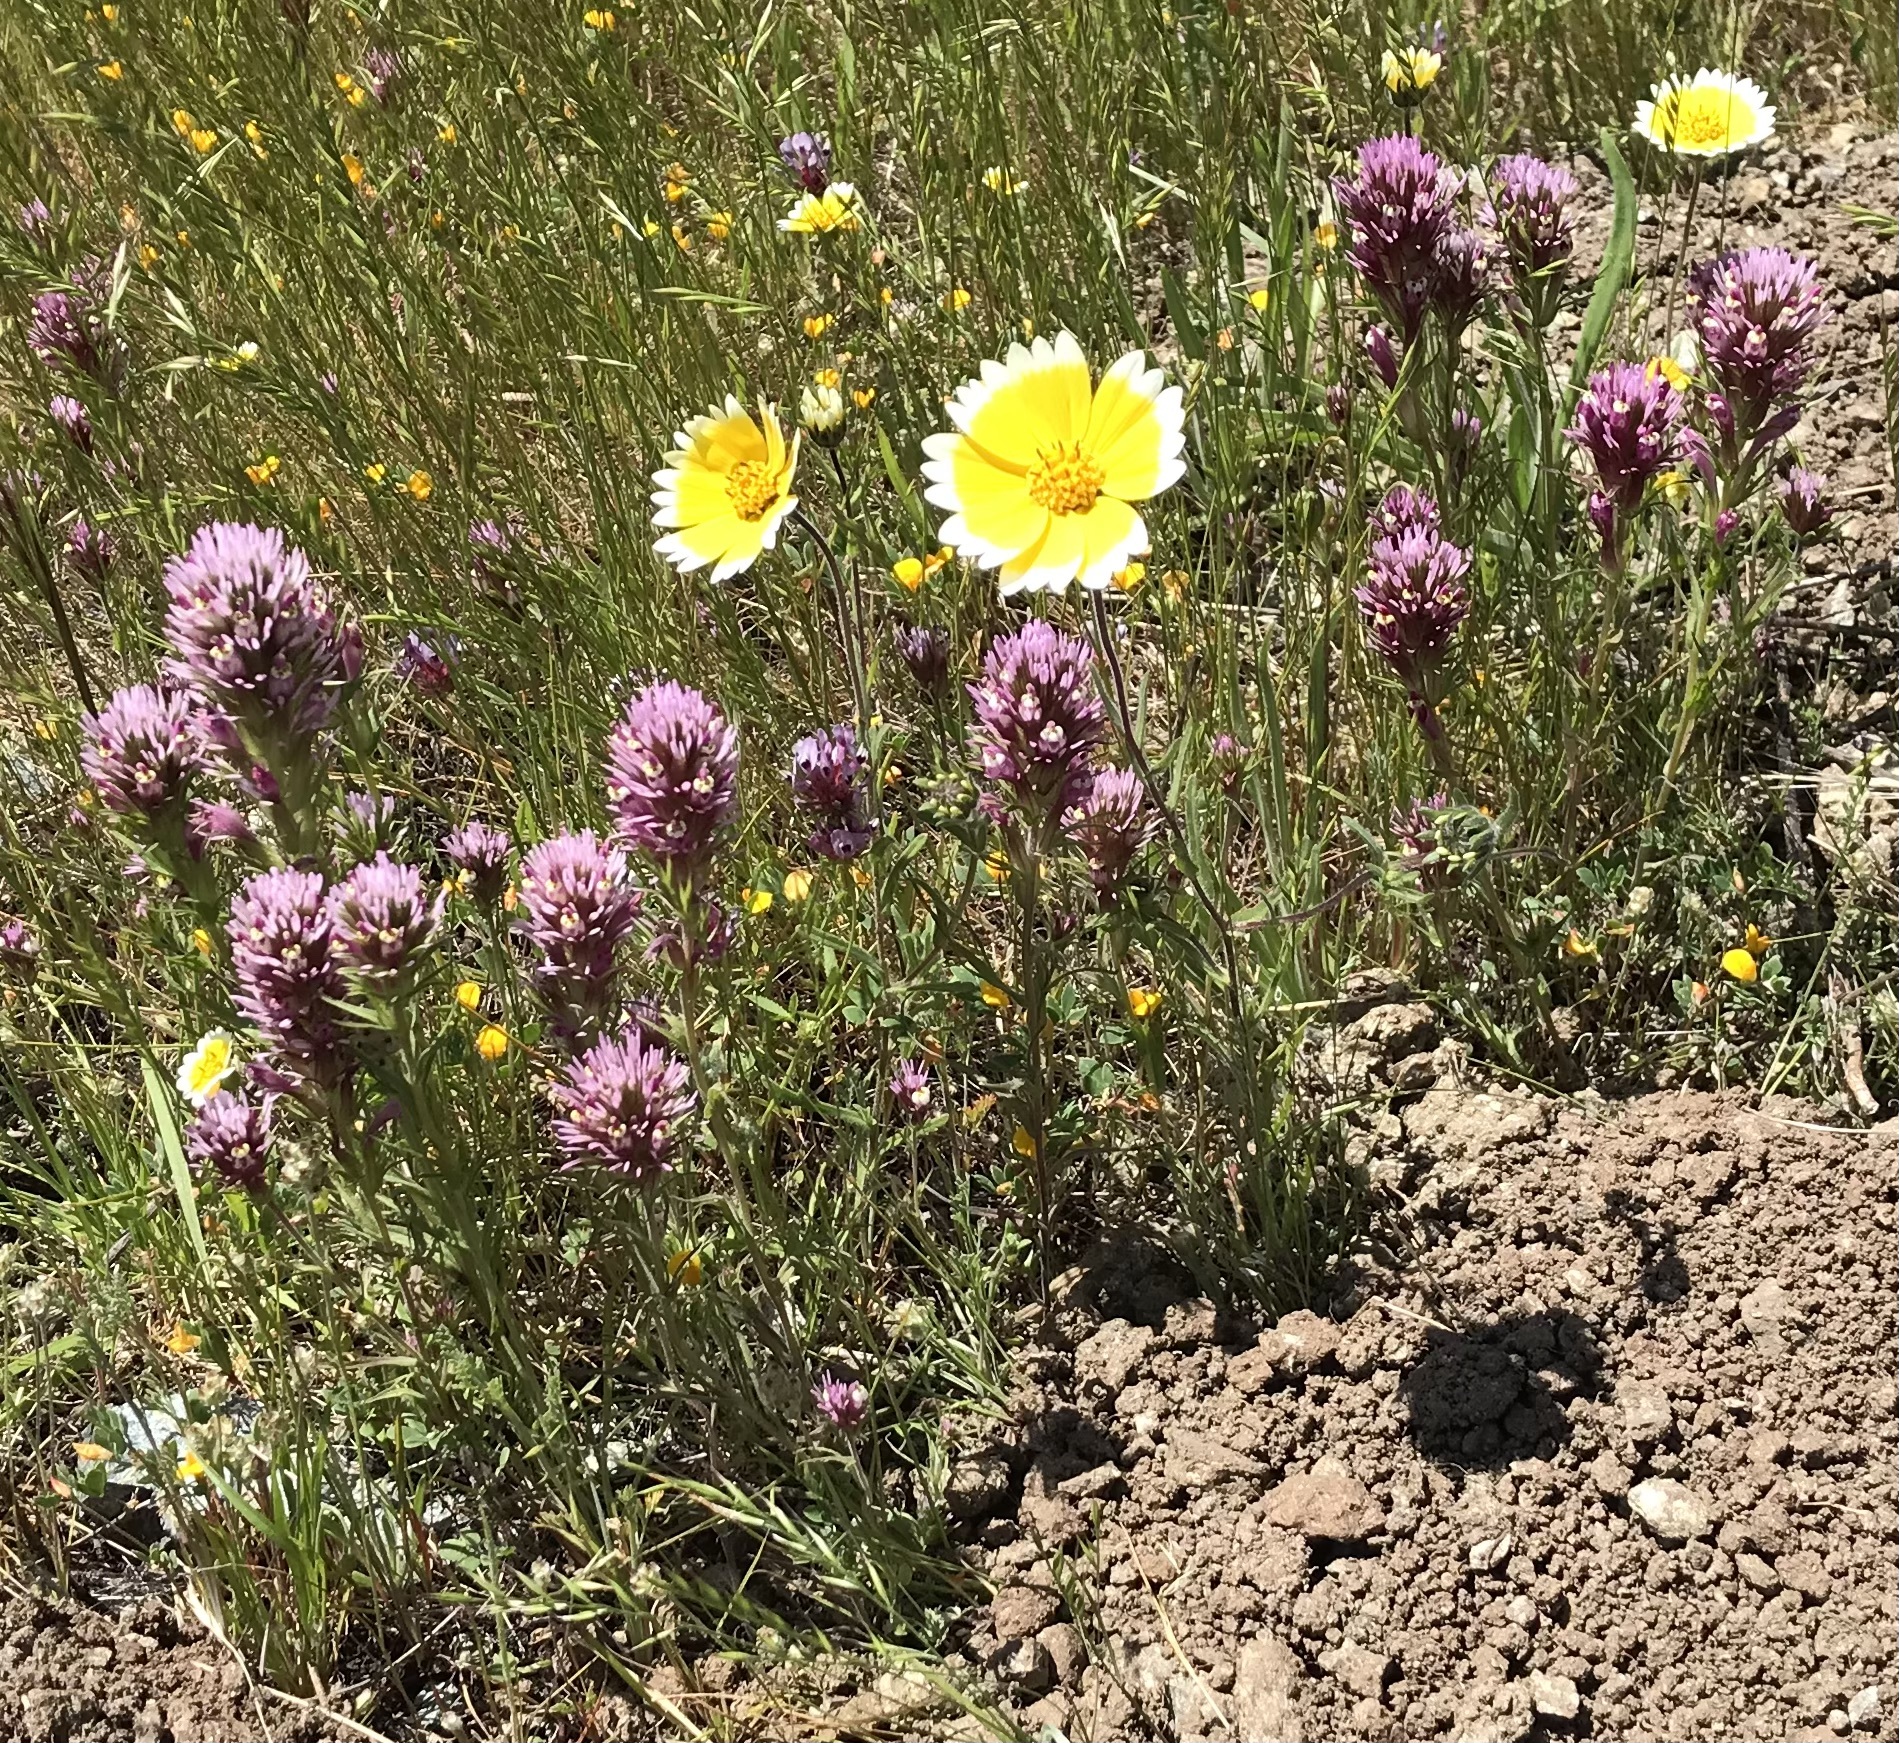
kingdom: Plantae
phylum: Tracheophyta
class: Magnoliopsida
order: Asterales
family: Asteraceae
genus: Layia
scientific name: Layia platyglossa
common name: Tidy-tips
